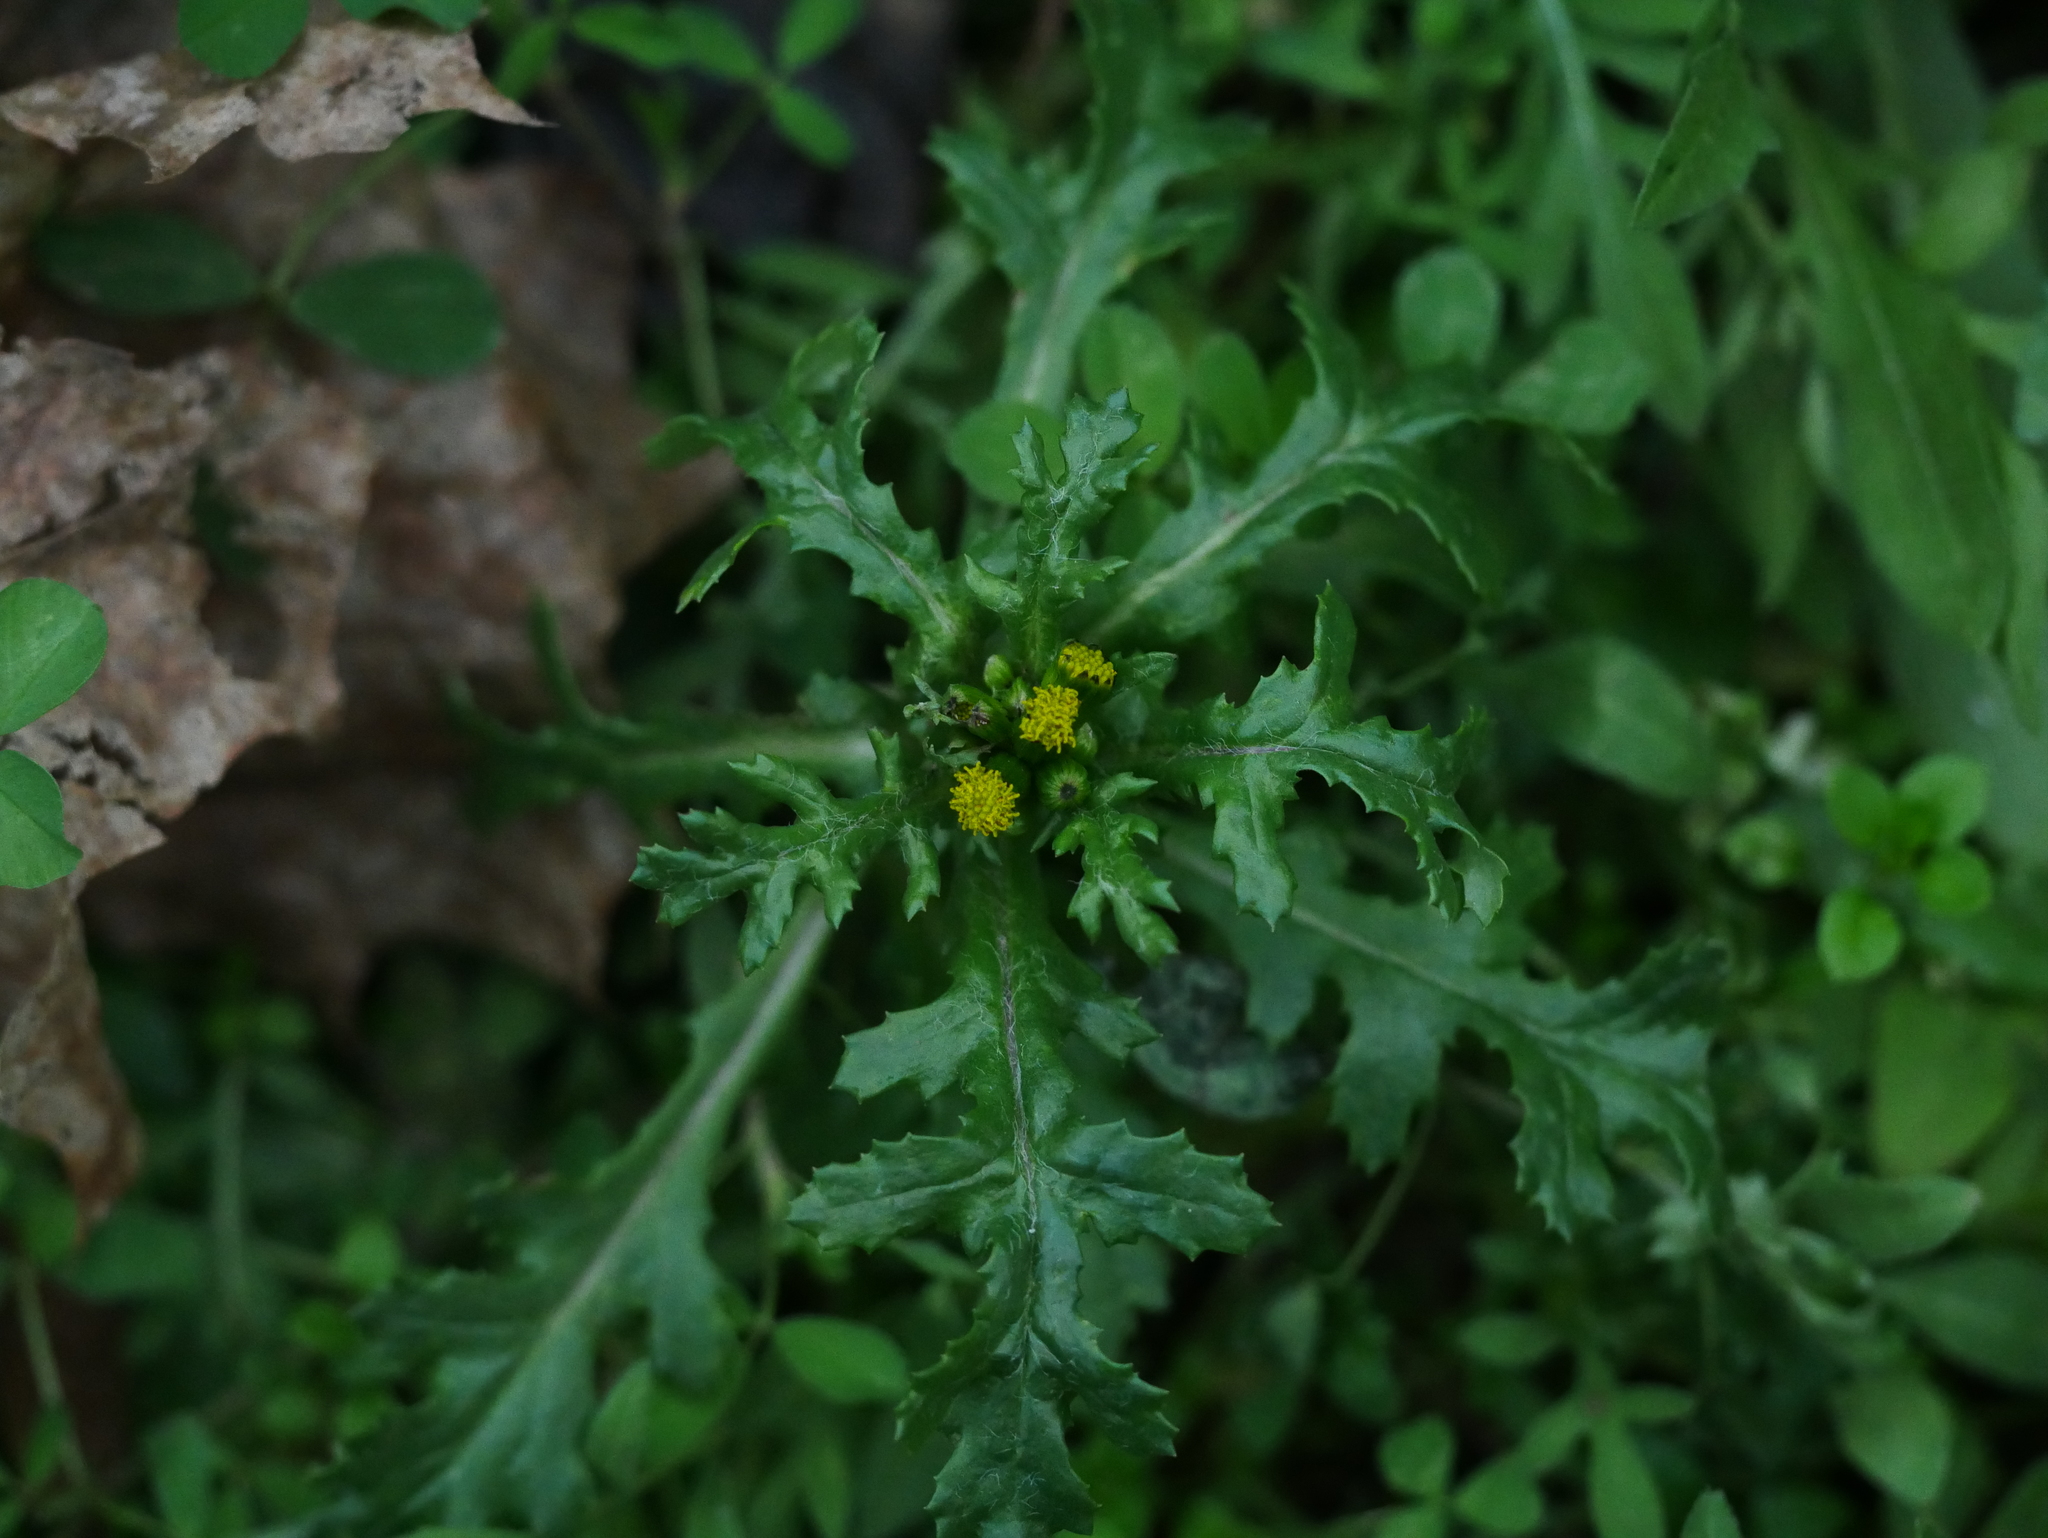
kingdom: Plantae
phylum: Tracheophyta
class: Magnoliopsida
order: Asterales
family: Asteraceae
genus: Senecio
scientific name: Senecio vulgaris
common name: Old-man-in-the-spring
